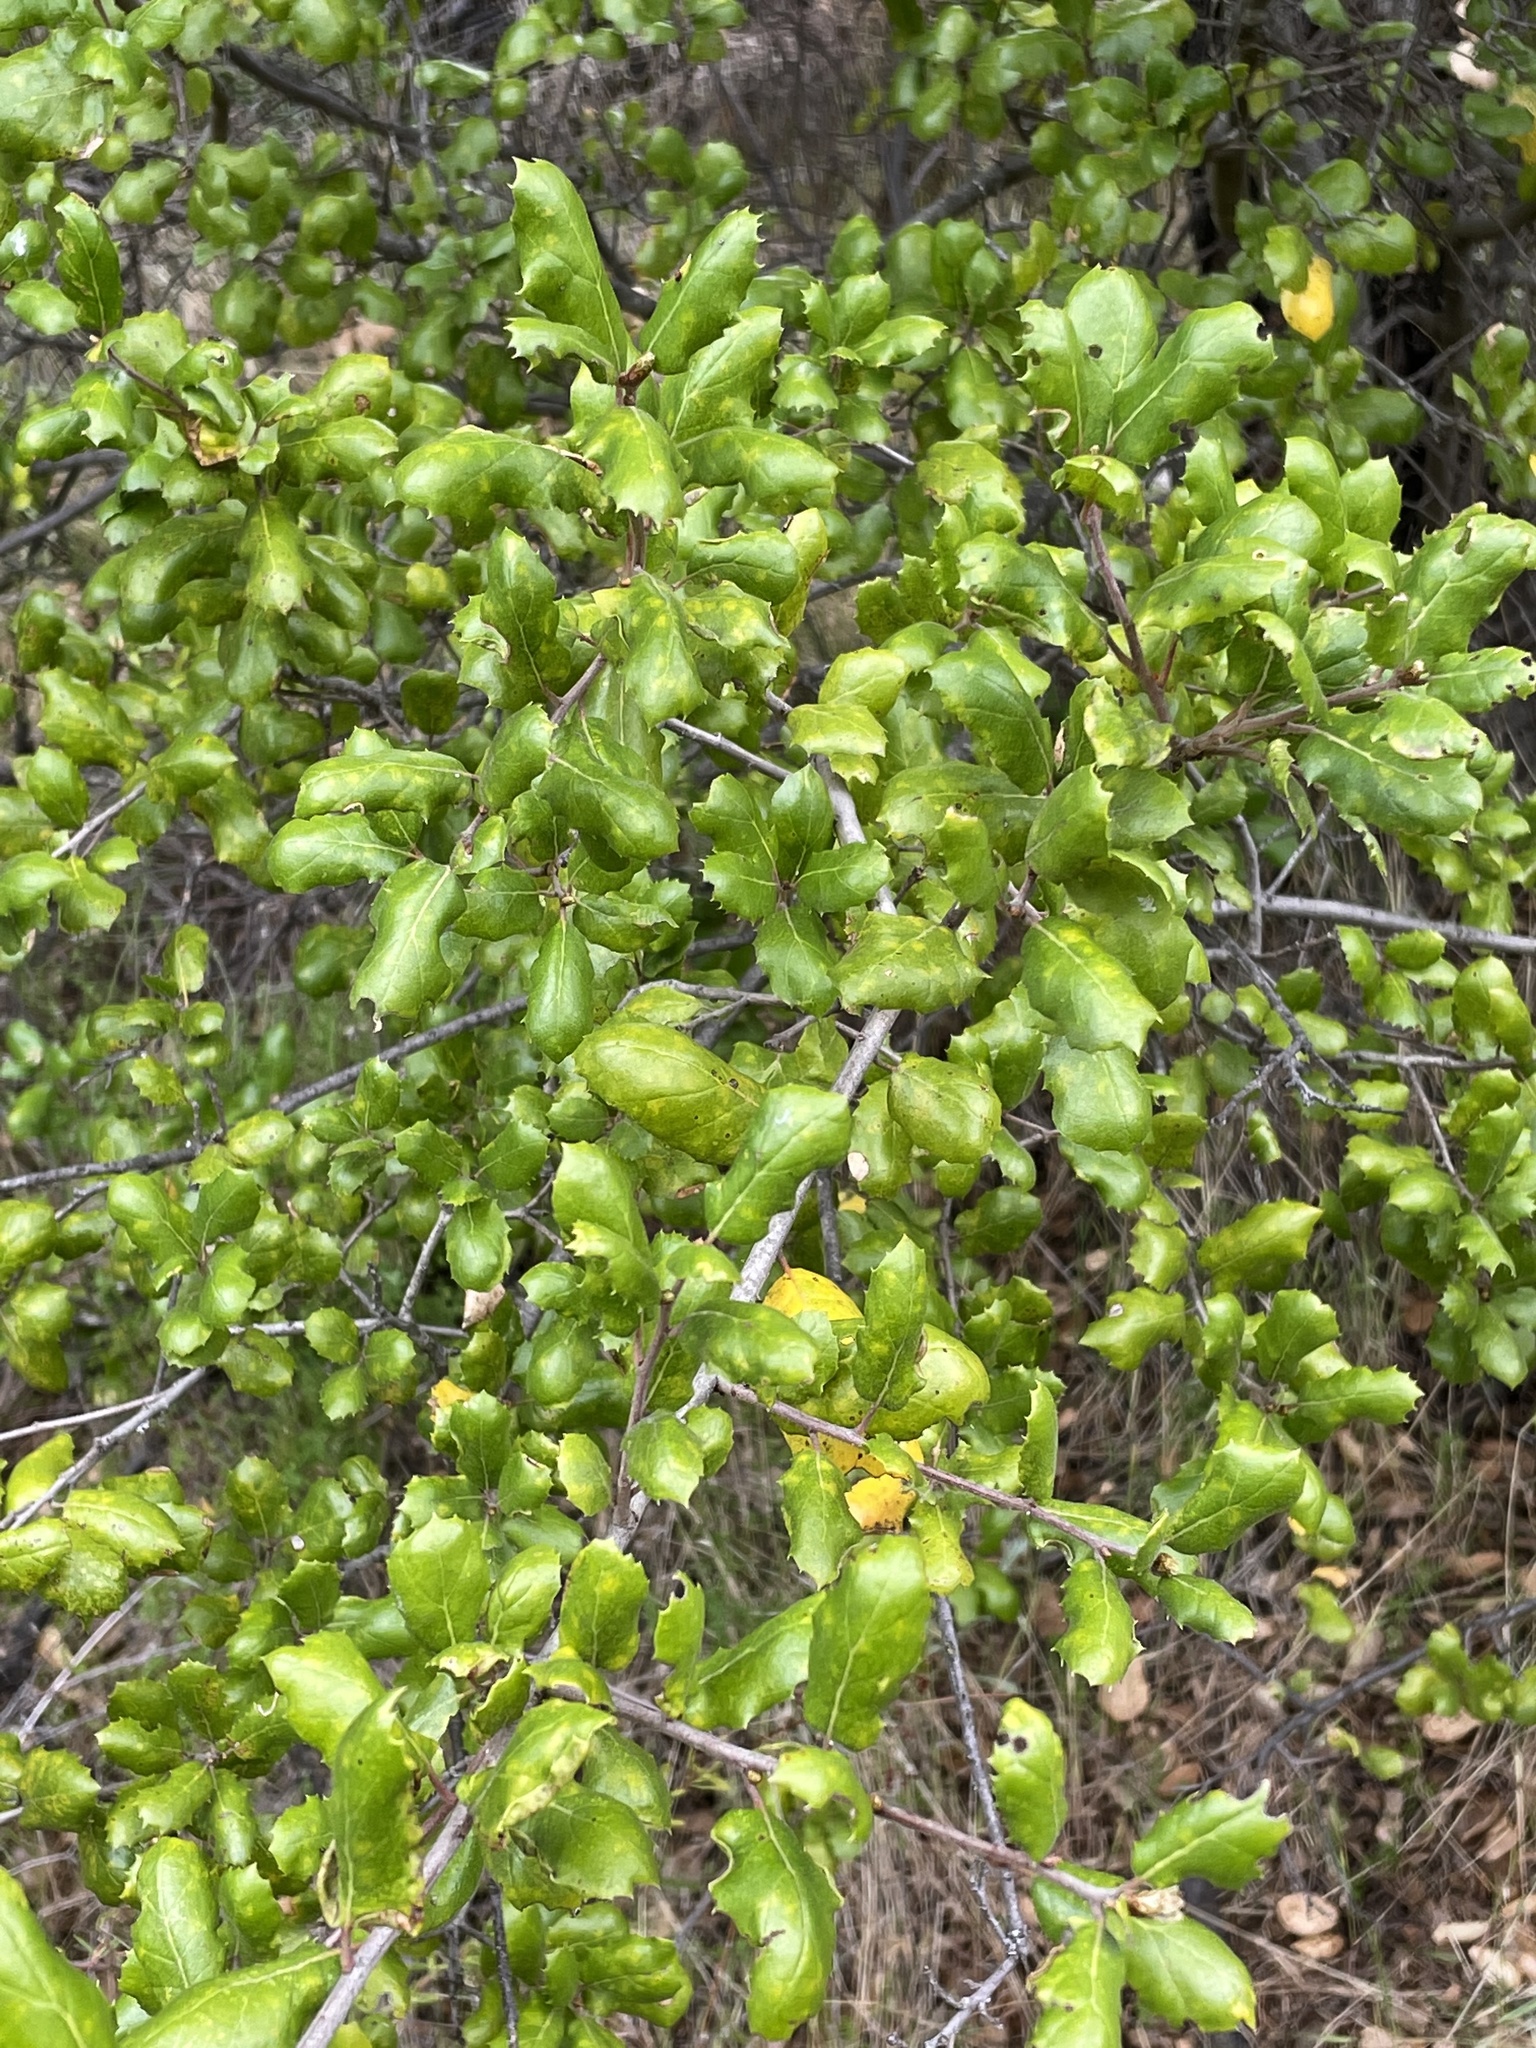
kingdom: Plantae
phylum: Tracheophyta
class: Magnoliopsida
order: Fagales
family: Fagaceae
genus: Quercus
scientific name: Quercus agrifolia
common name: California live oak
